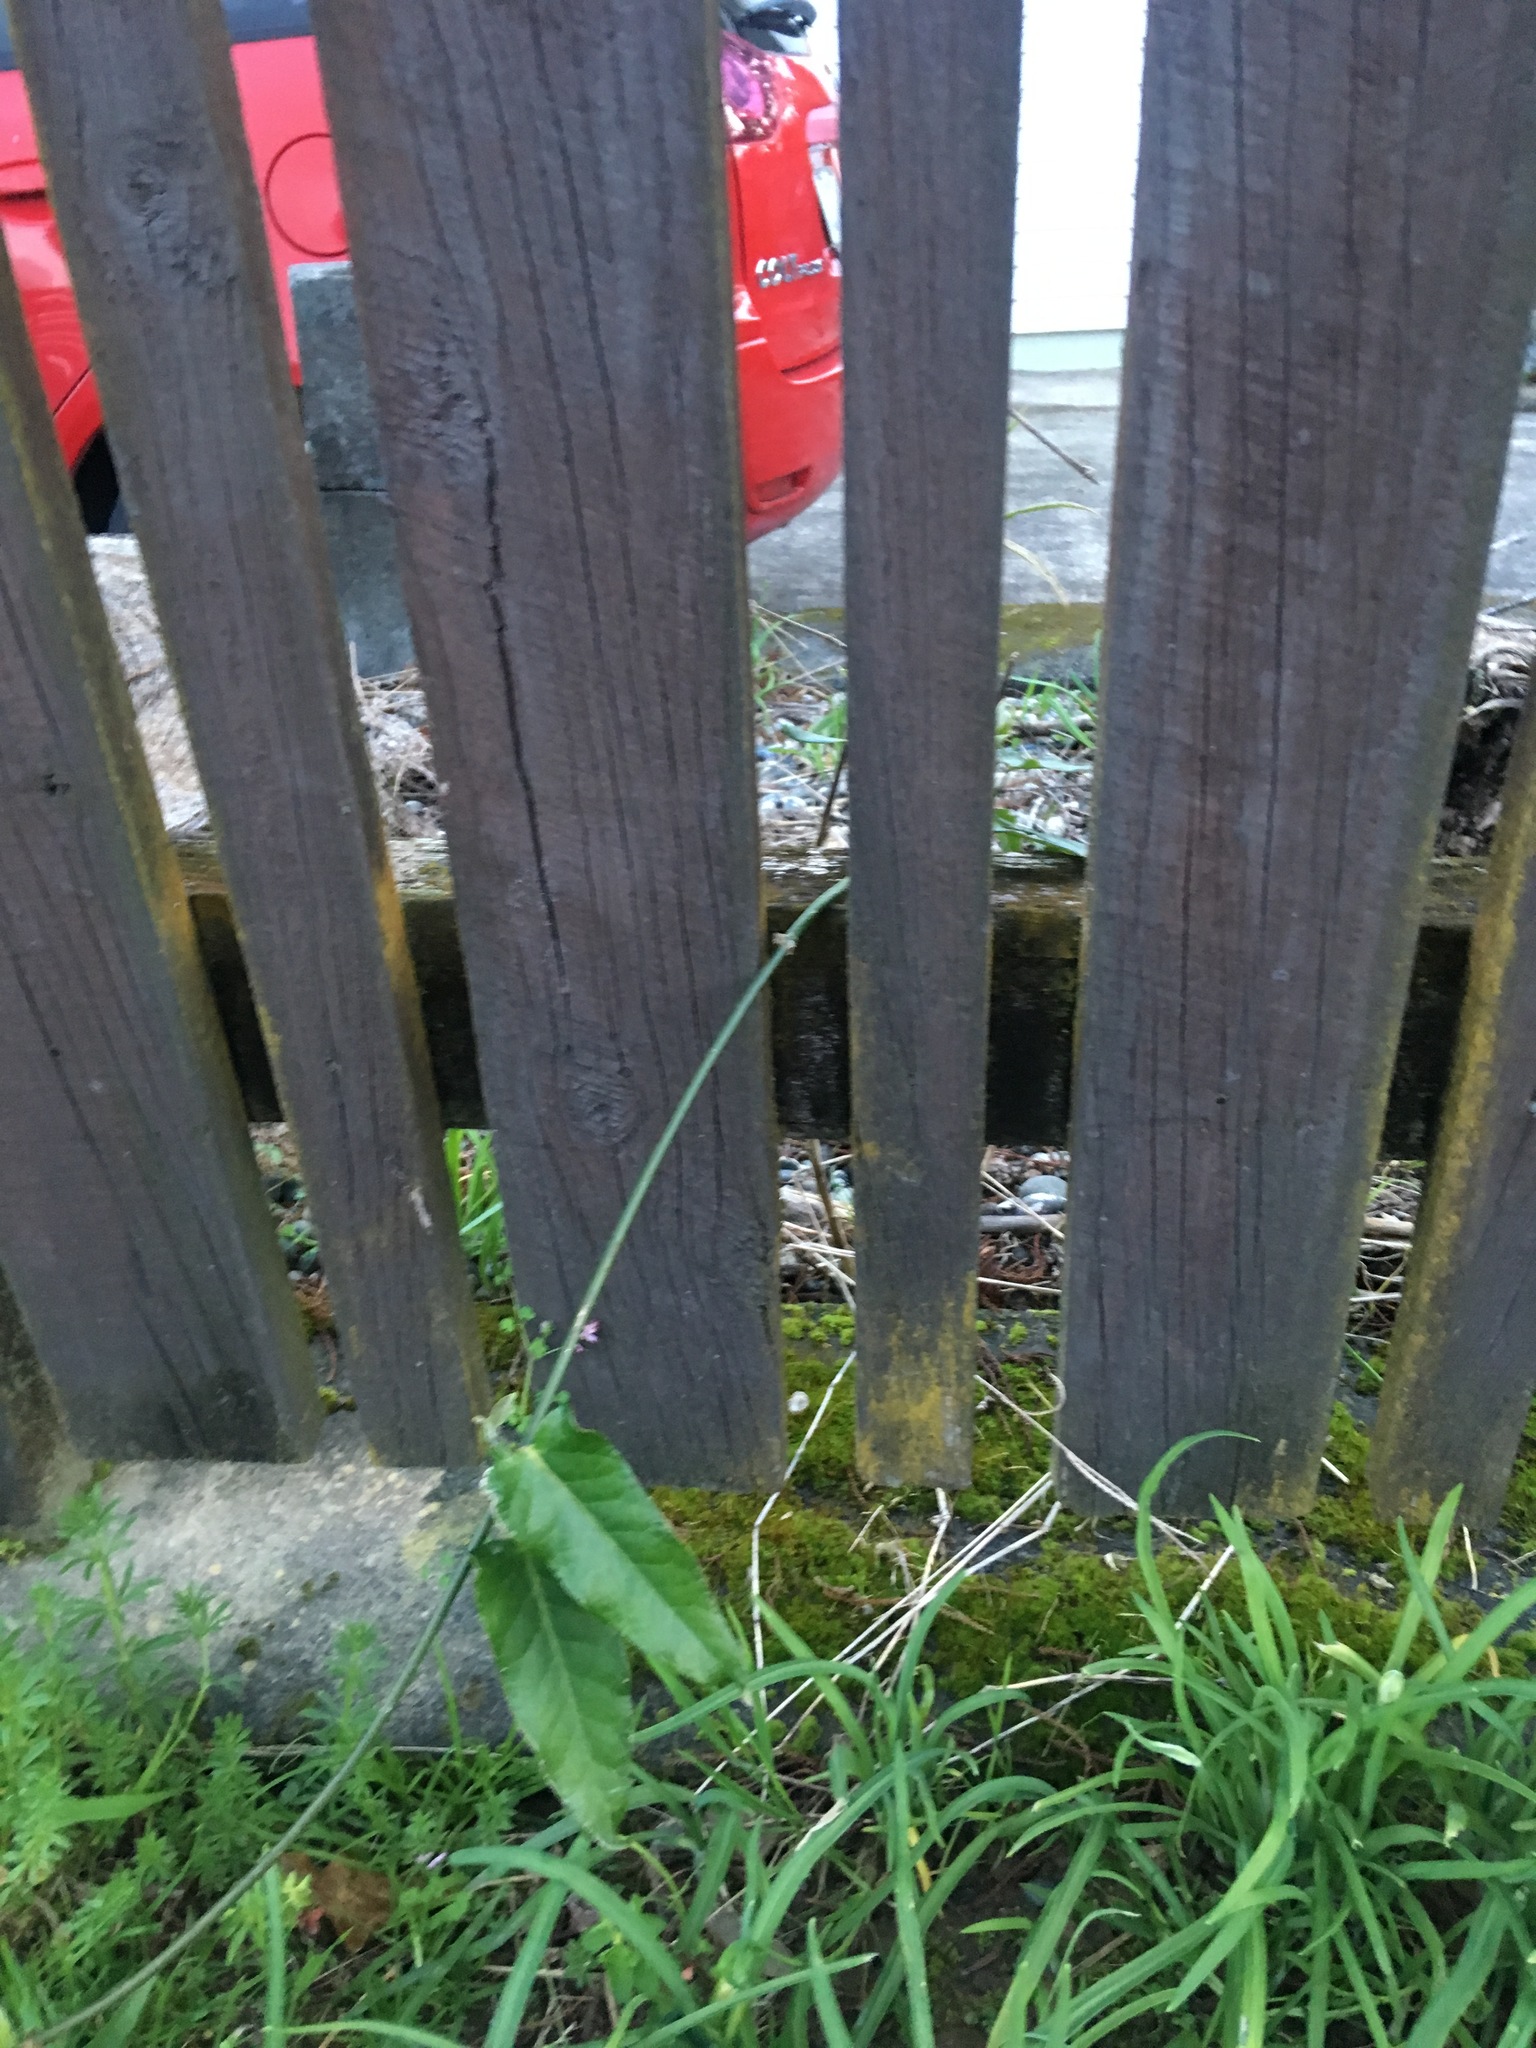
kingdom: Plantae
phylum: Tracheophyta
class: Magnoliopsida
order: Gentianales
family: Apocynaceae
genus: Araujia
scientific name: Araujia sericifera
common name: White bladderflower
